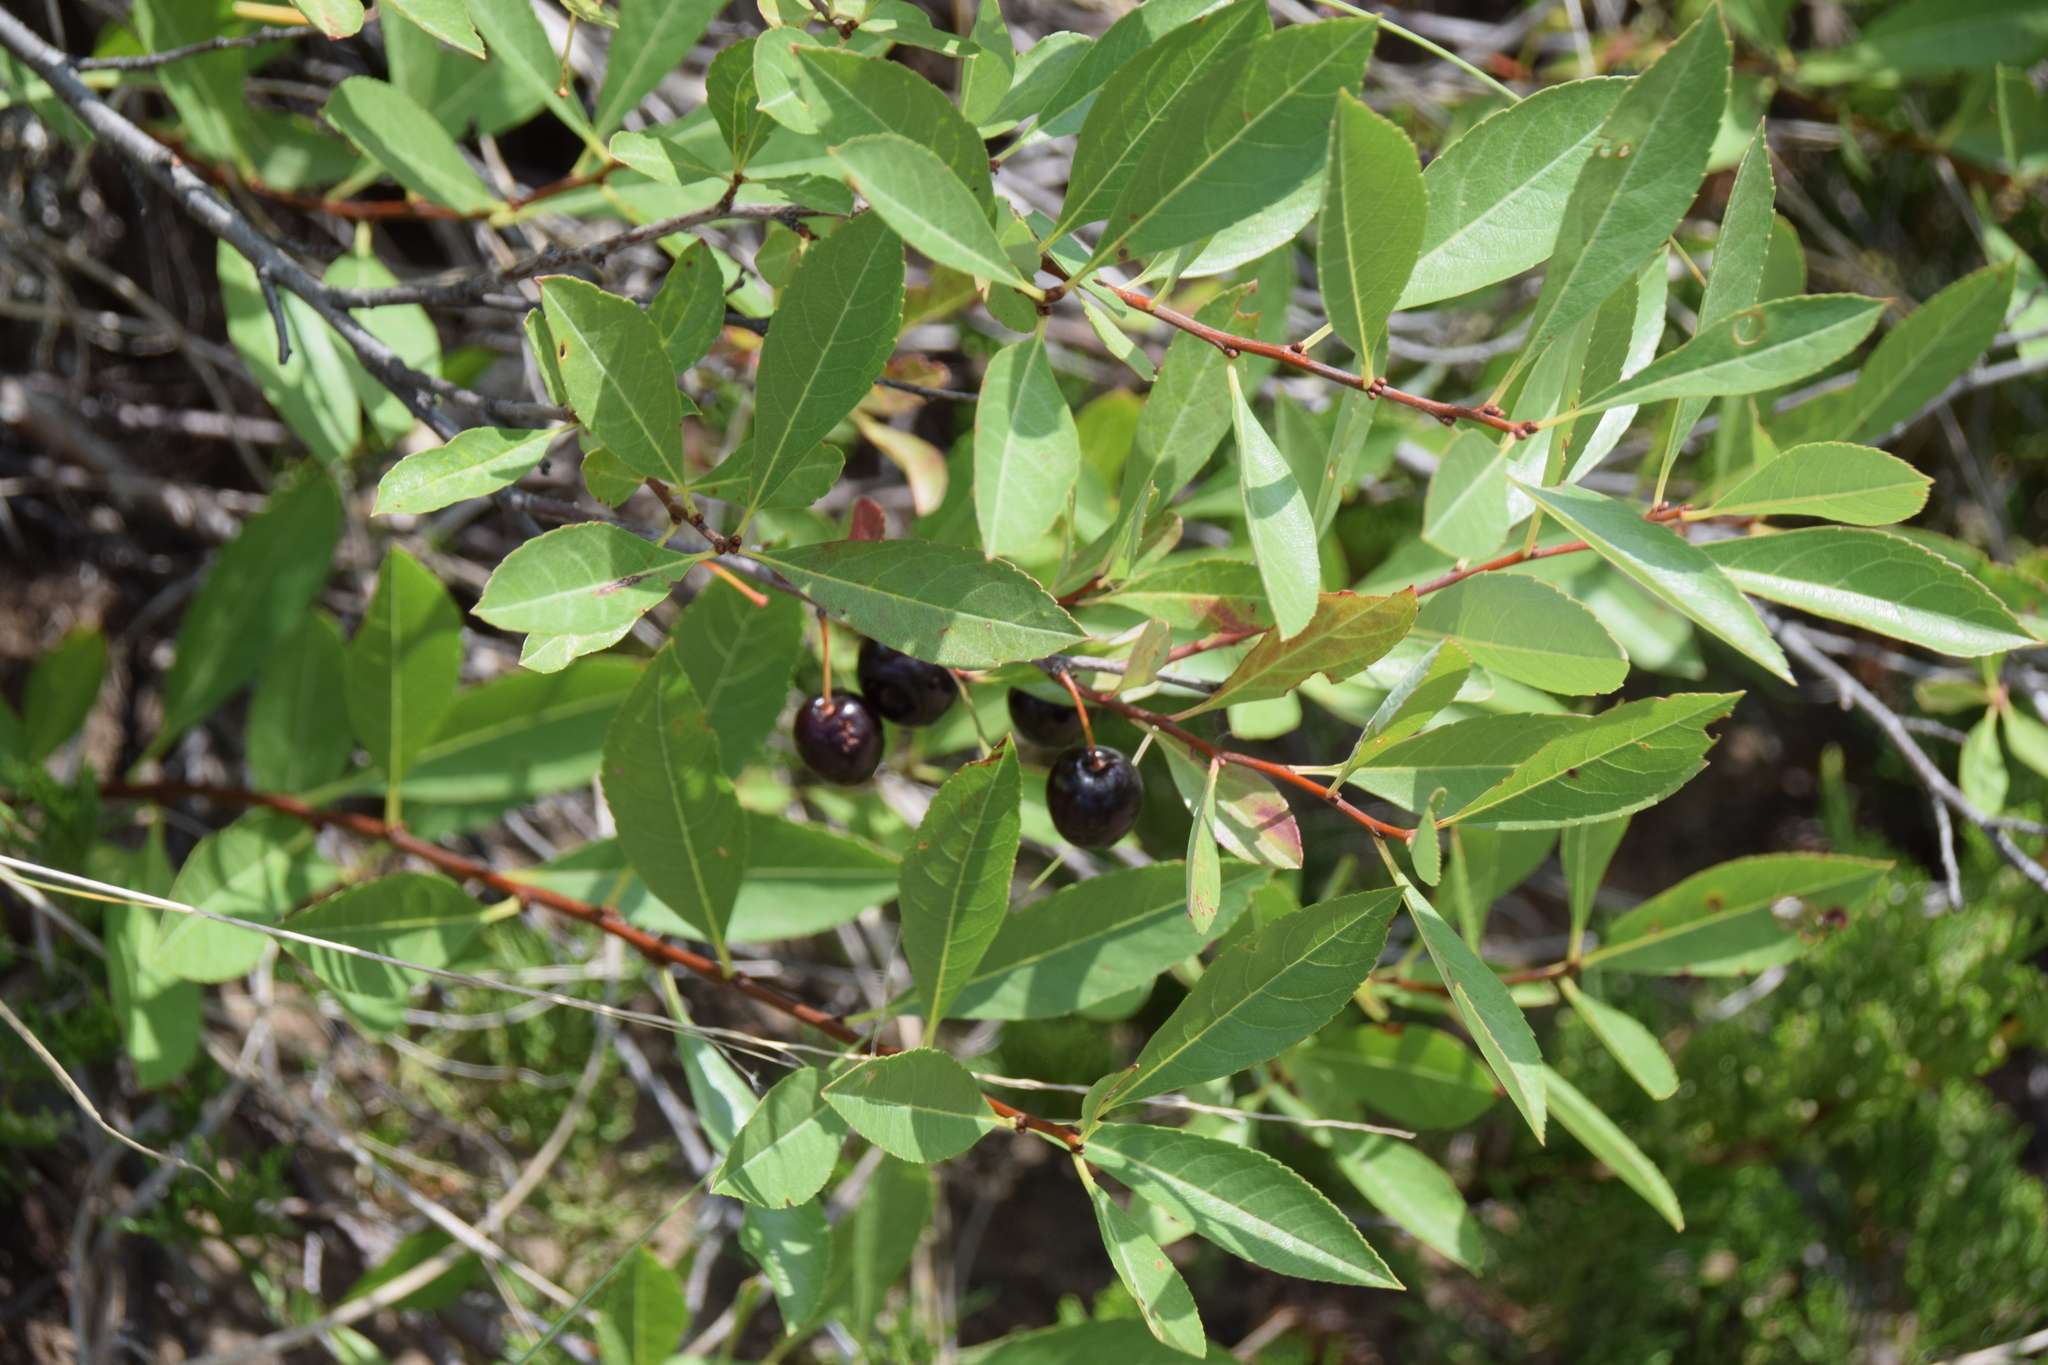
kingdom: Plantae
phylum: Tracheophyta
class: Magnoliopsida
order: Rosales
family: Rosaceae
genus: Prunus
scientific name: Prunus pumila
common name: Dwarf cherry
